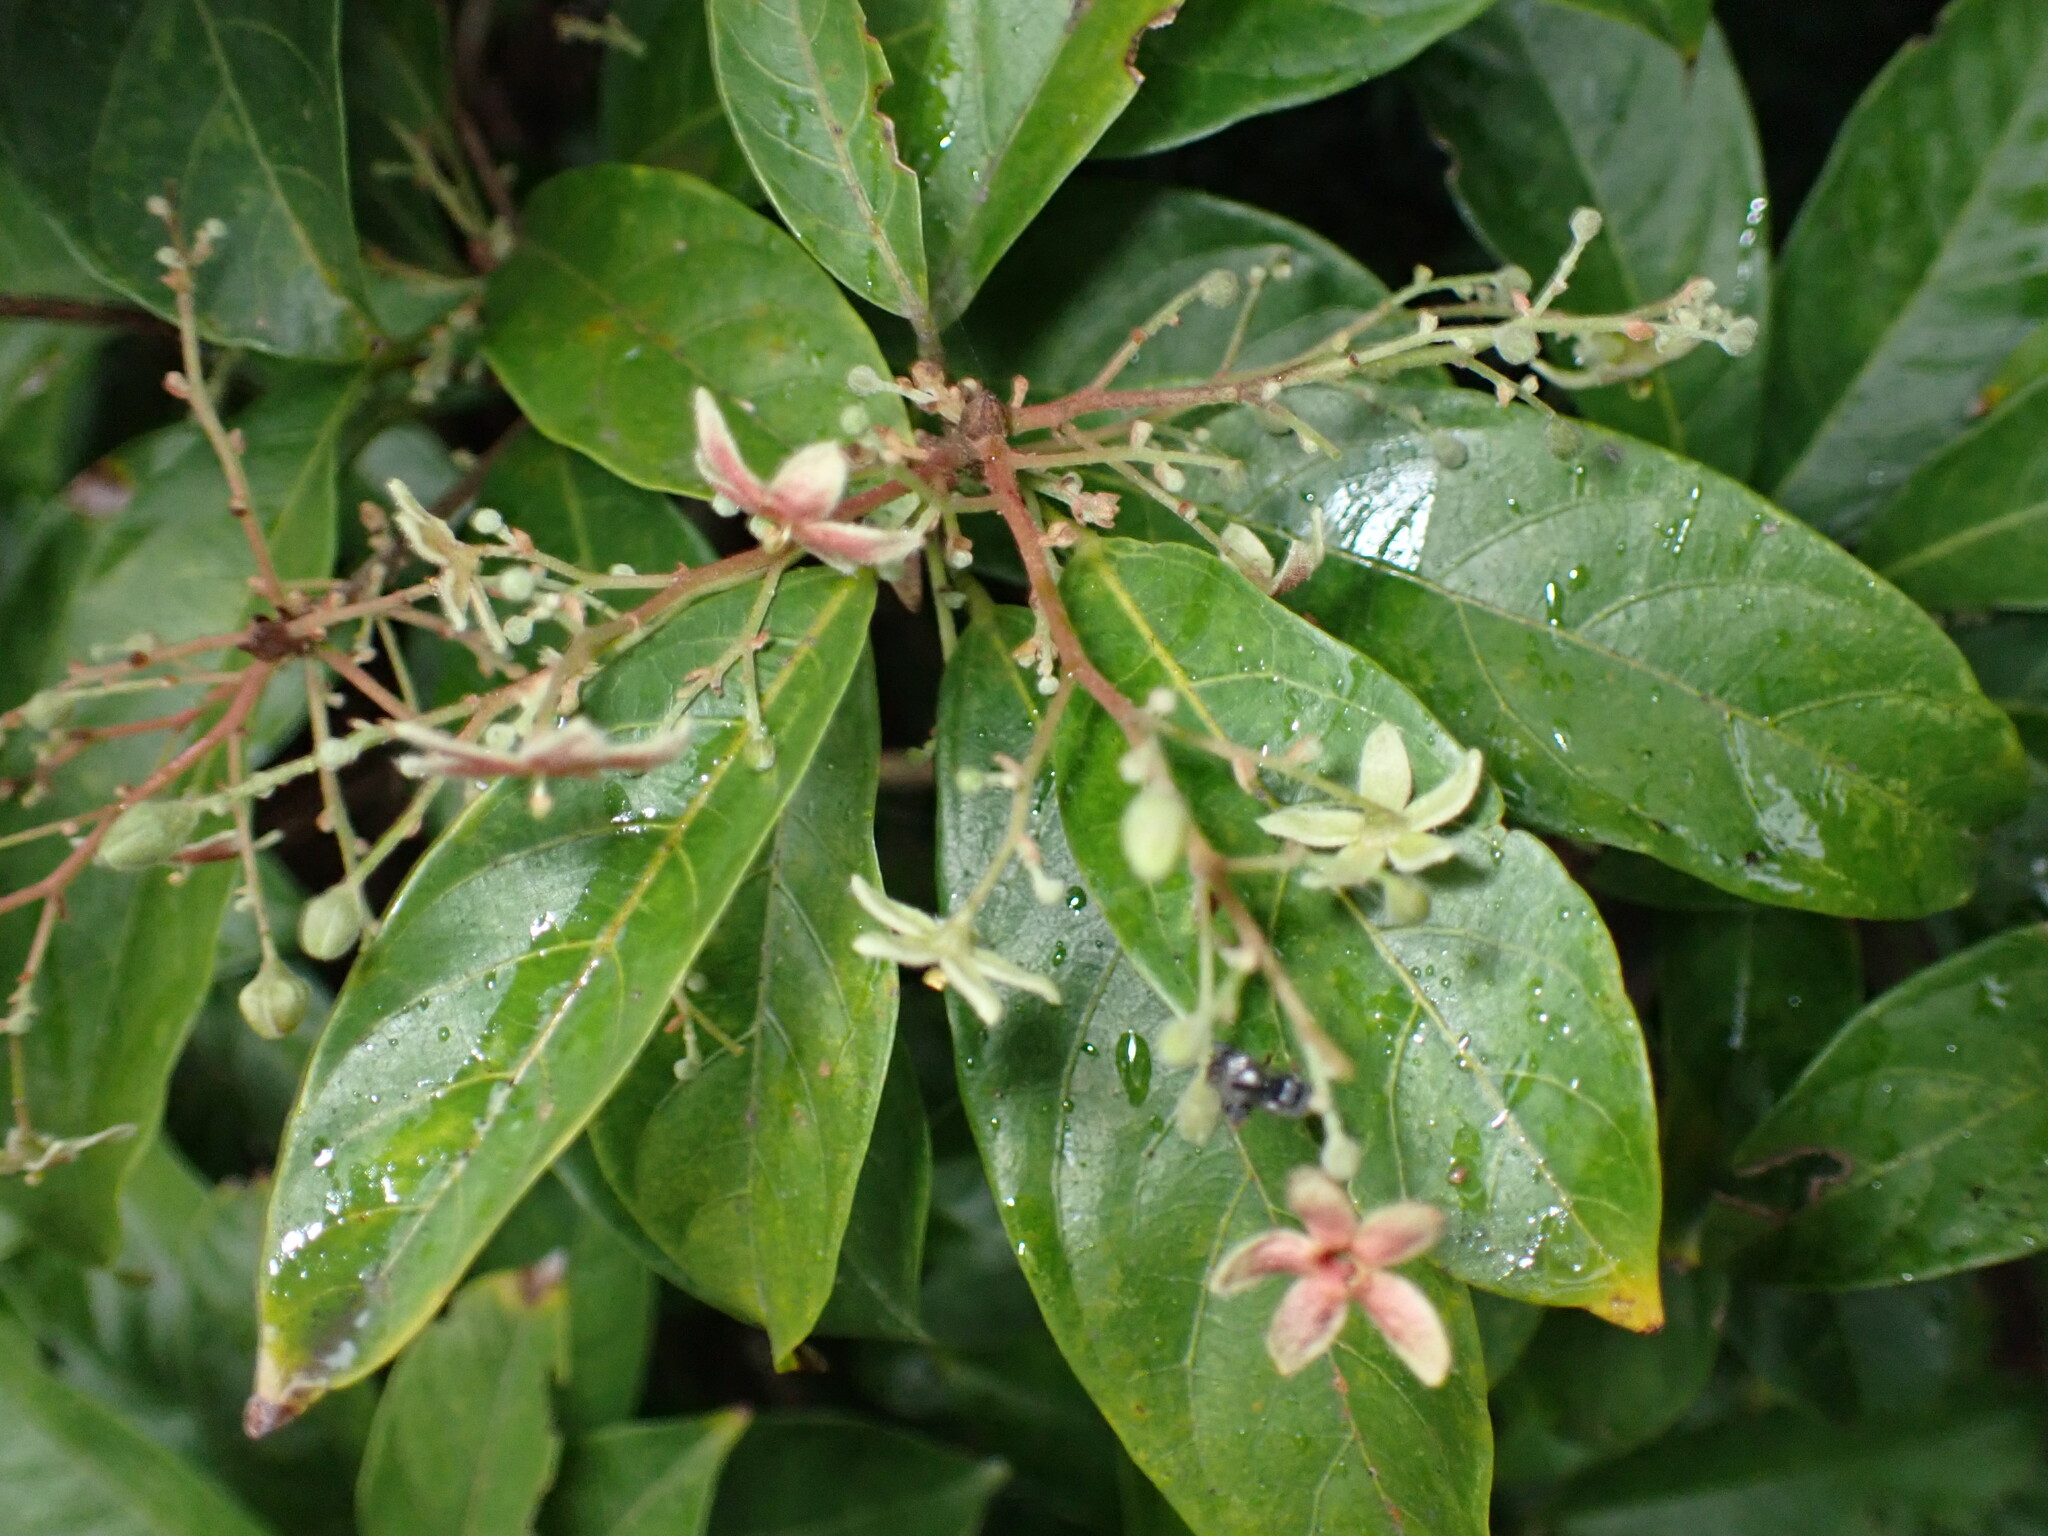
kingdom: Plantae
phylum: Tracheophyta
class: Magnoliopsida
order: Malvales
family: Malvaceae
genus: Sterculia
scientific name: Sterculia lanceolata
